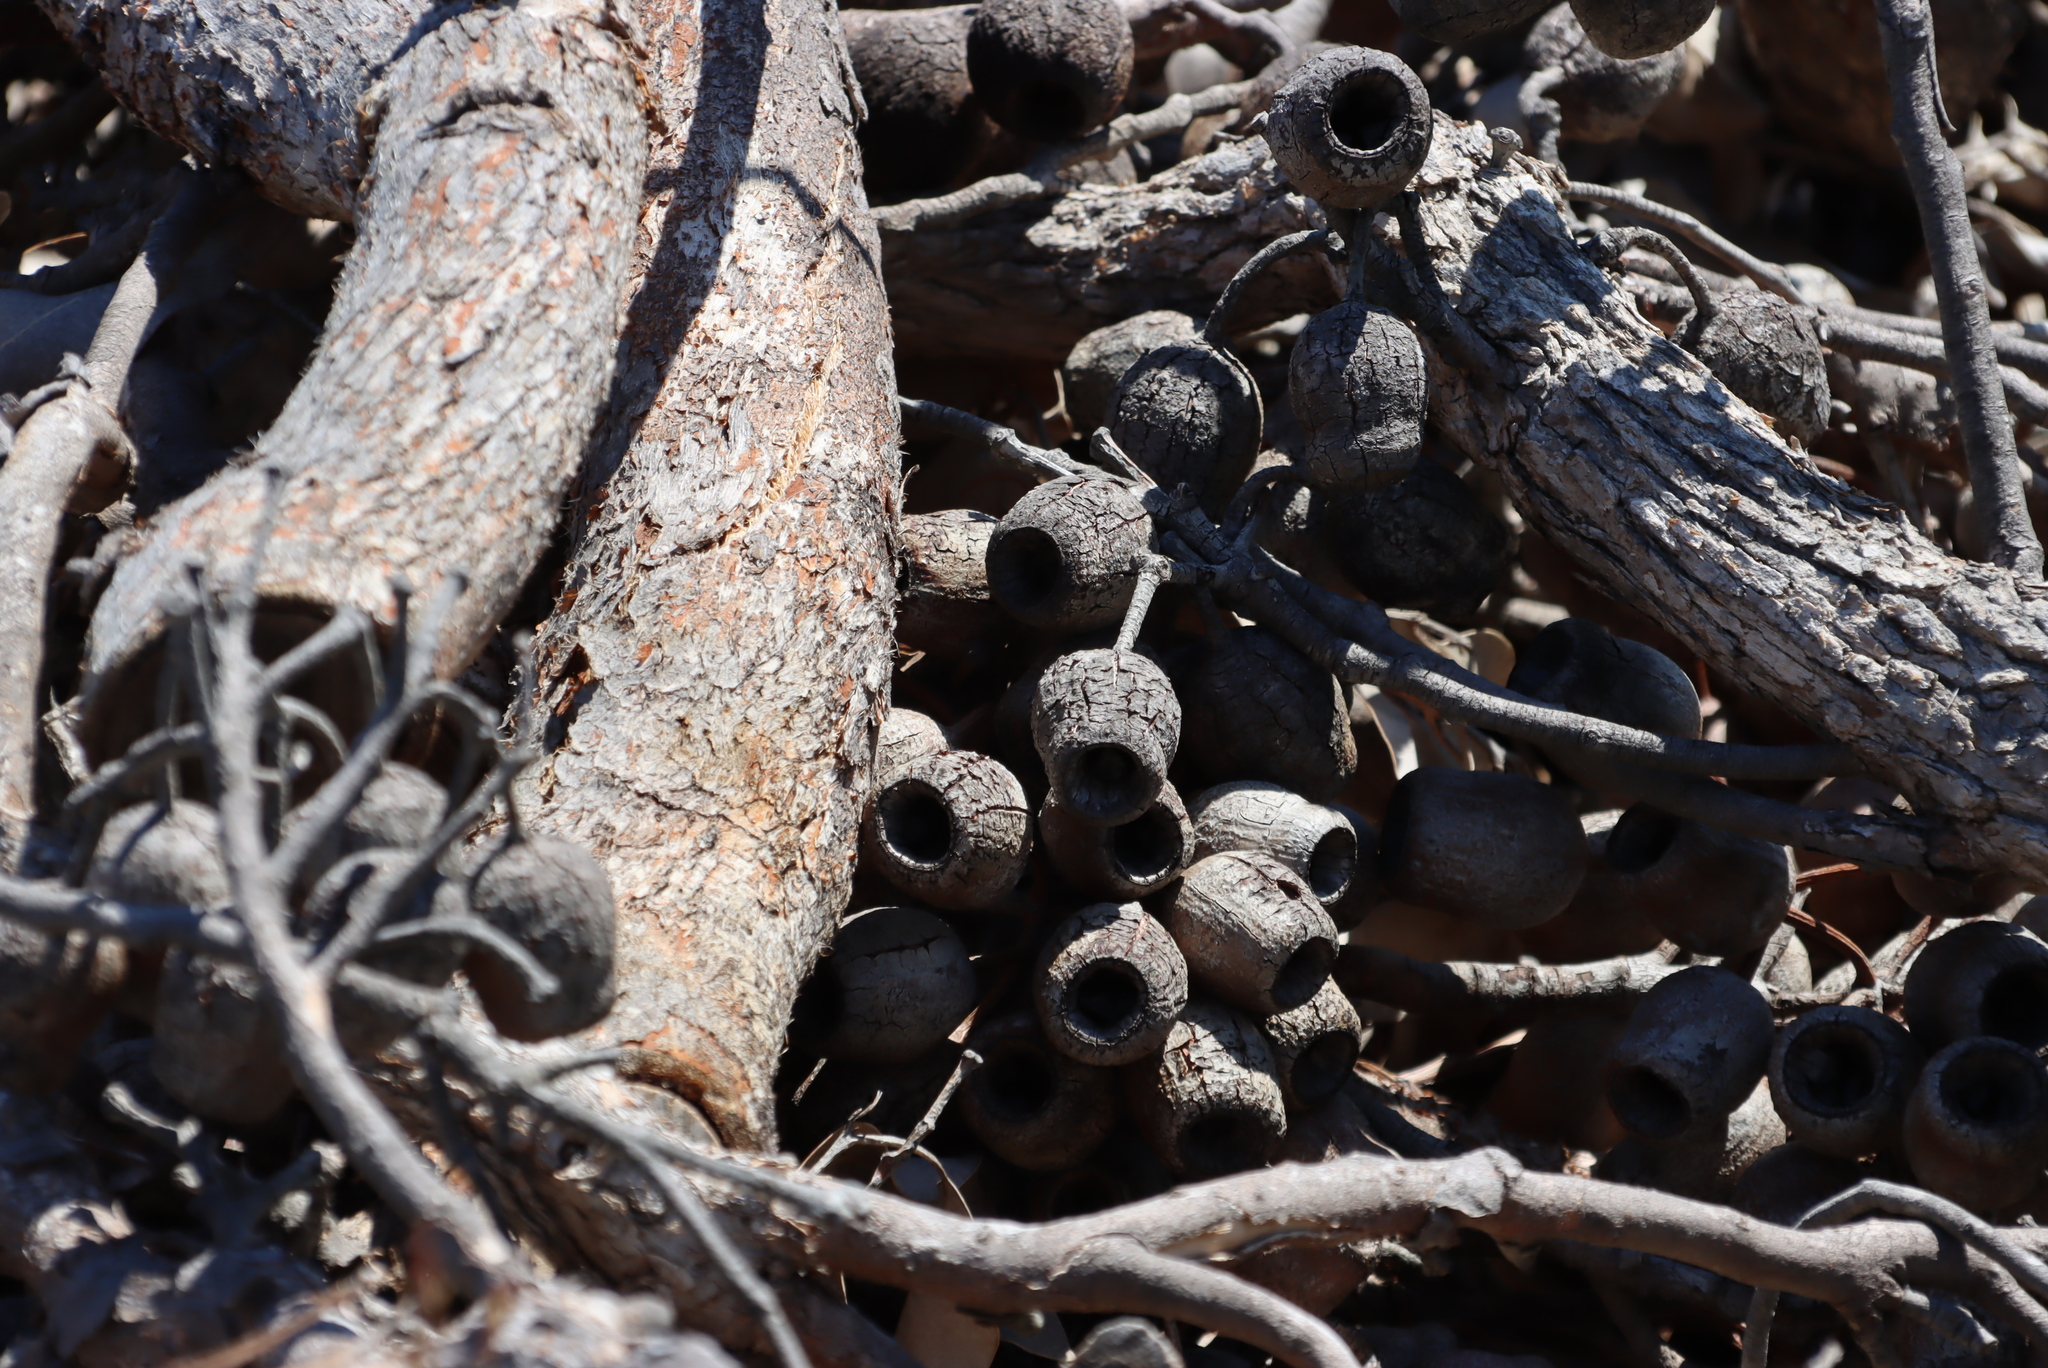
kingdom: Plantae
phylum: Tracheophyta
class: Magnoliopsida
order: Myrtales
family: Myrtaceae
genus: Corymbia
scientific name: Corymbia ficifolia
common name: Redflower gum
